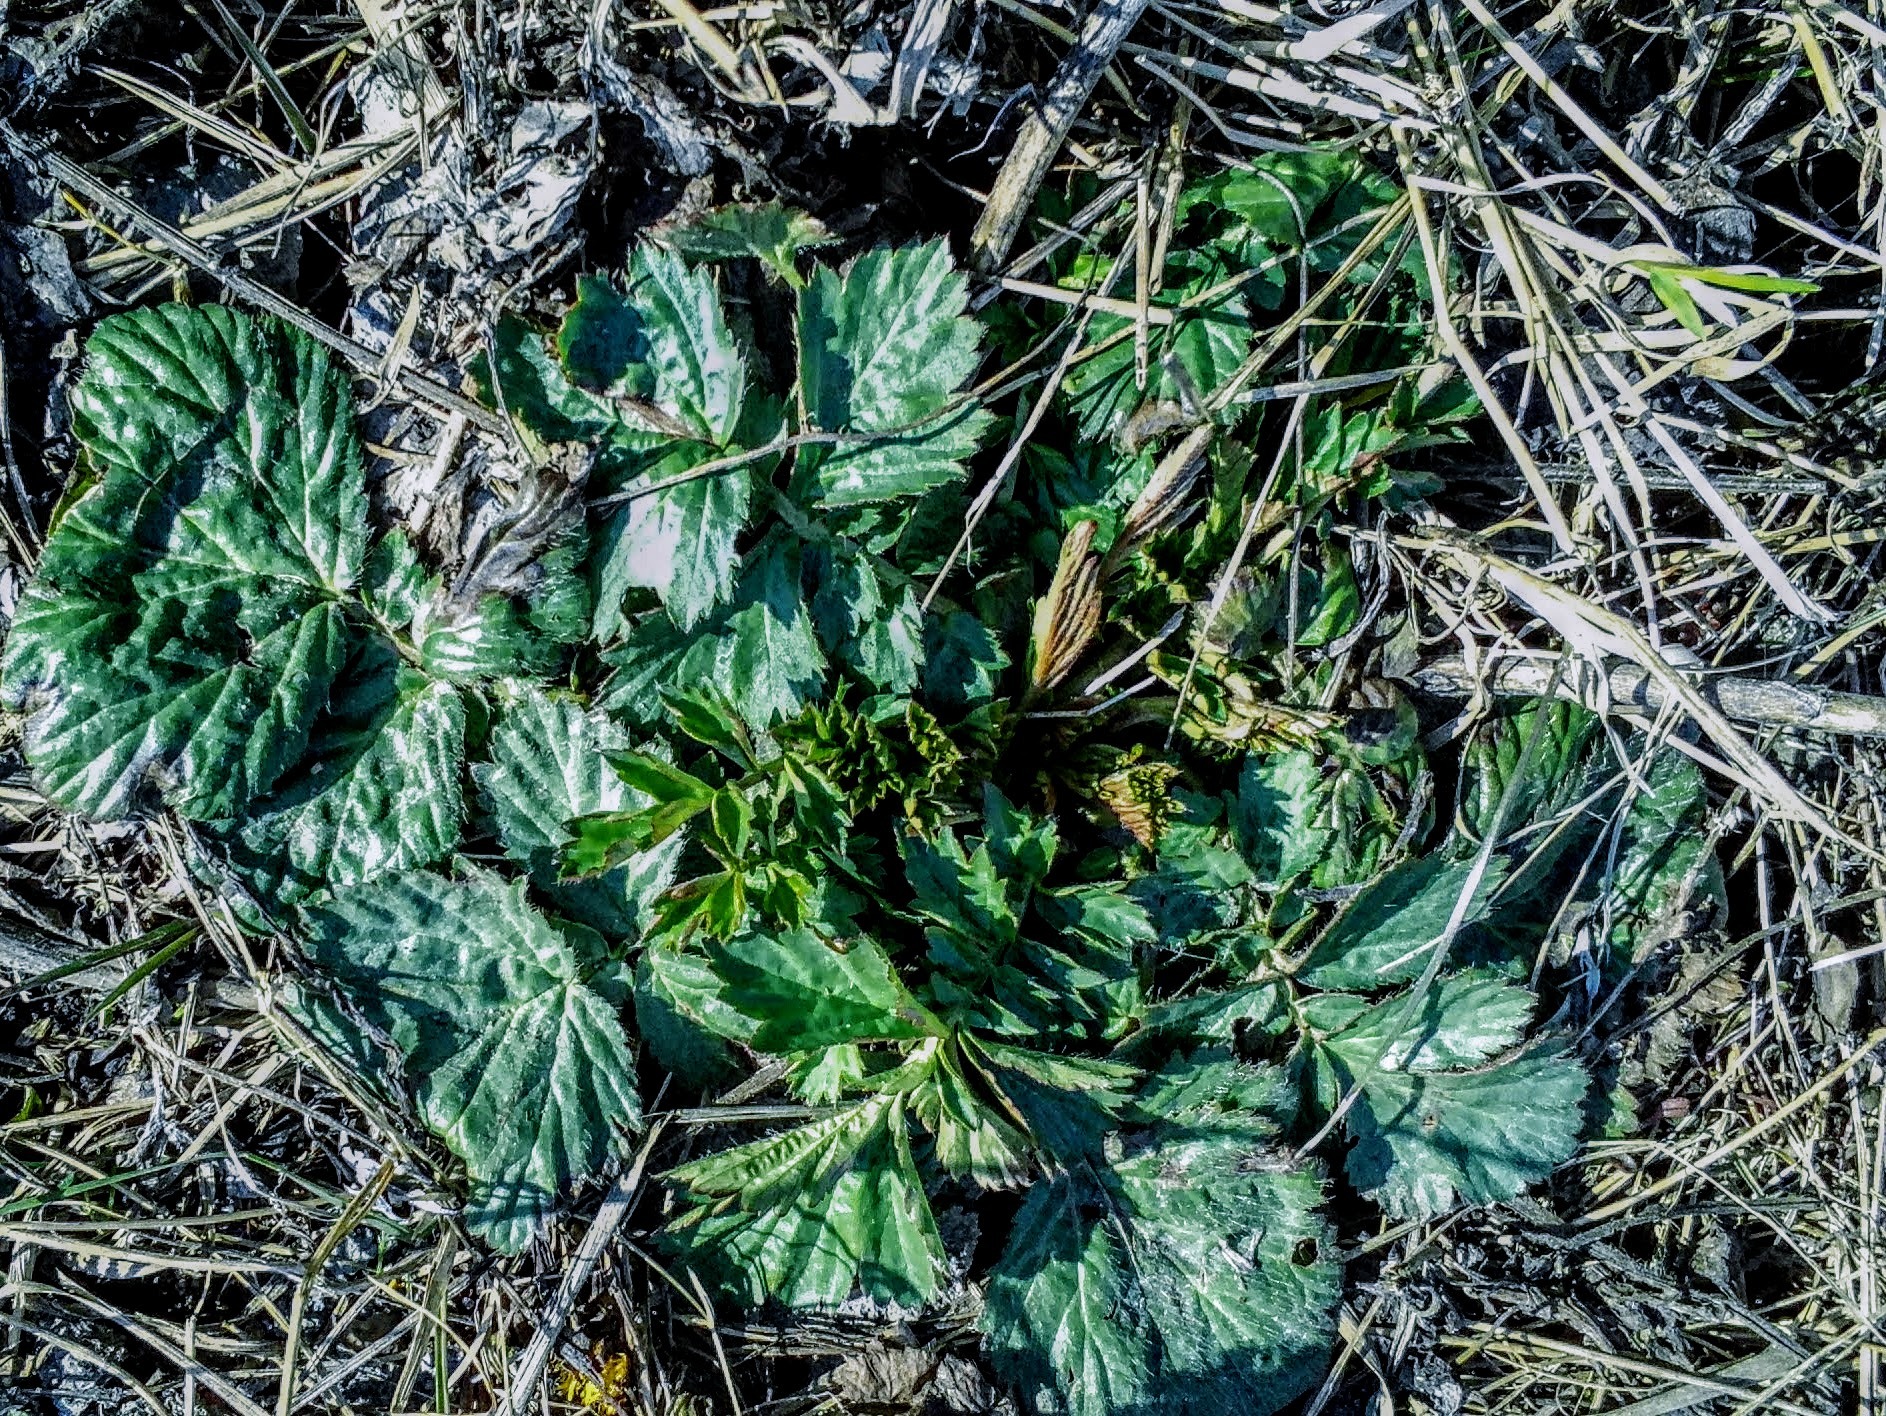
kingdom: Plantae
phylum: Tracheophyta
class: Magnoliopsida
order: Rosales
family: Rosaceae
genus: Geum
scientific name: Geum aleppicum
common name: Yellow avens
